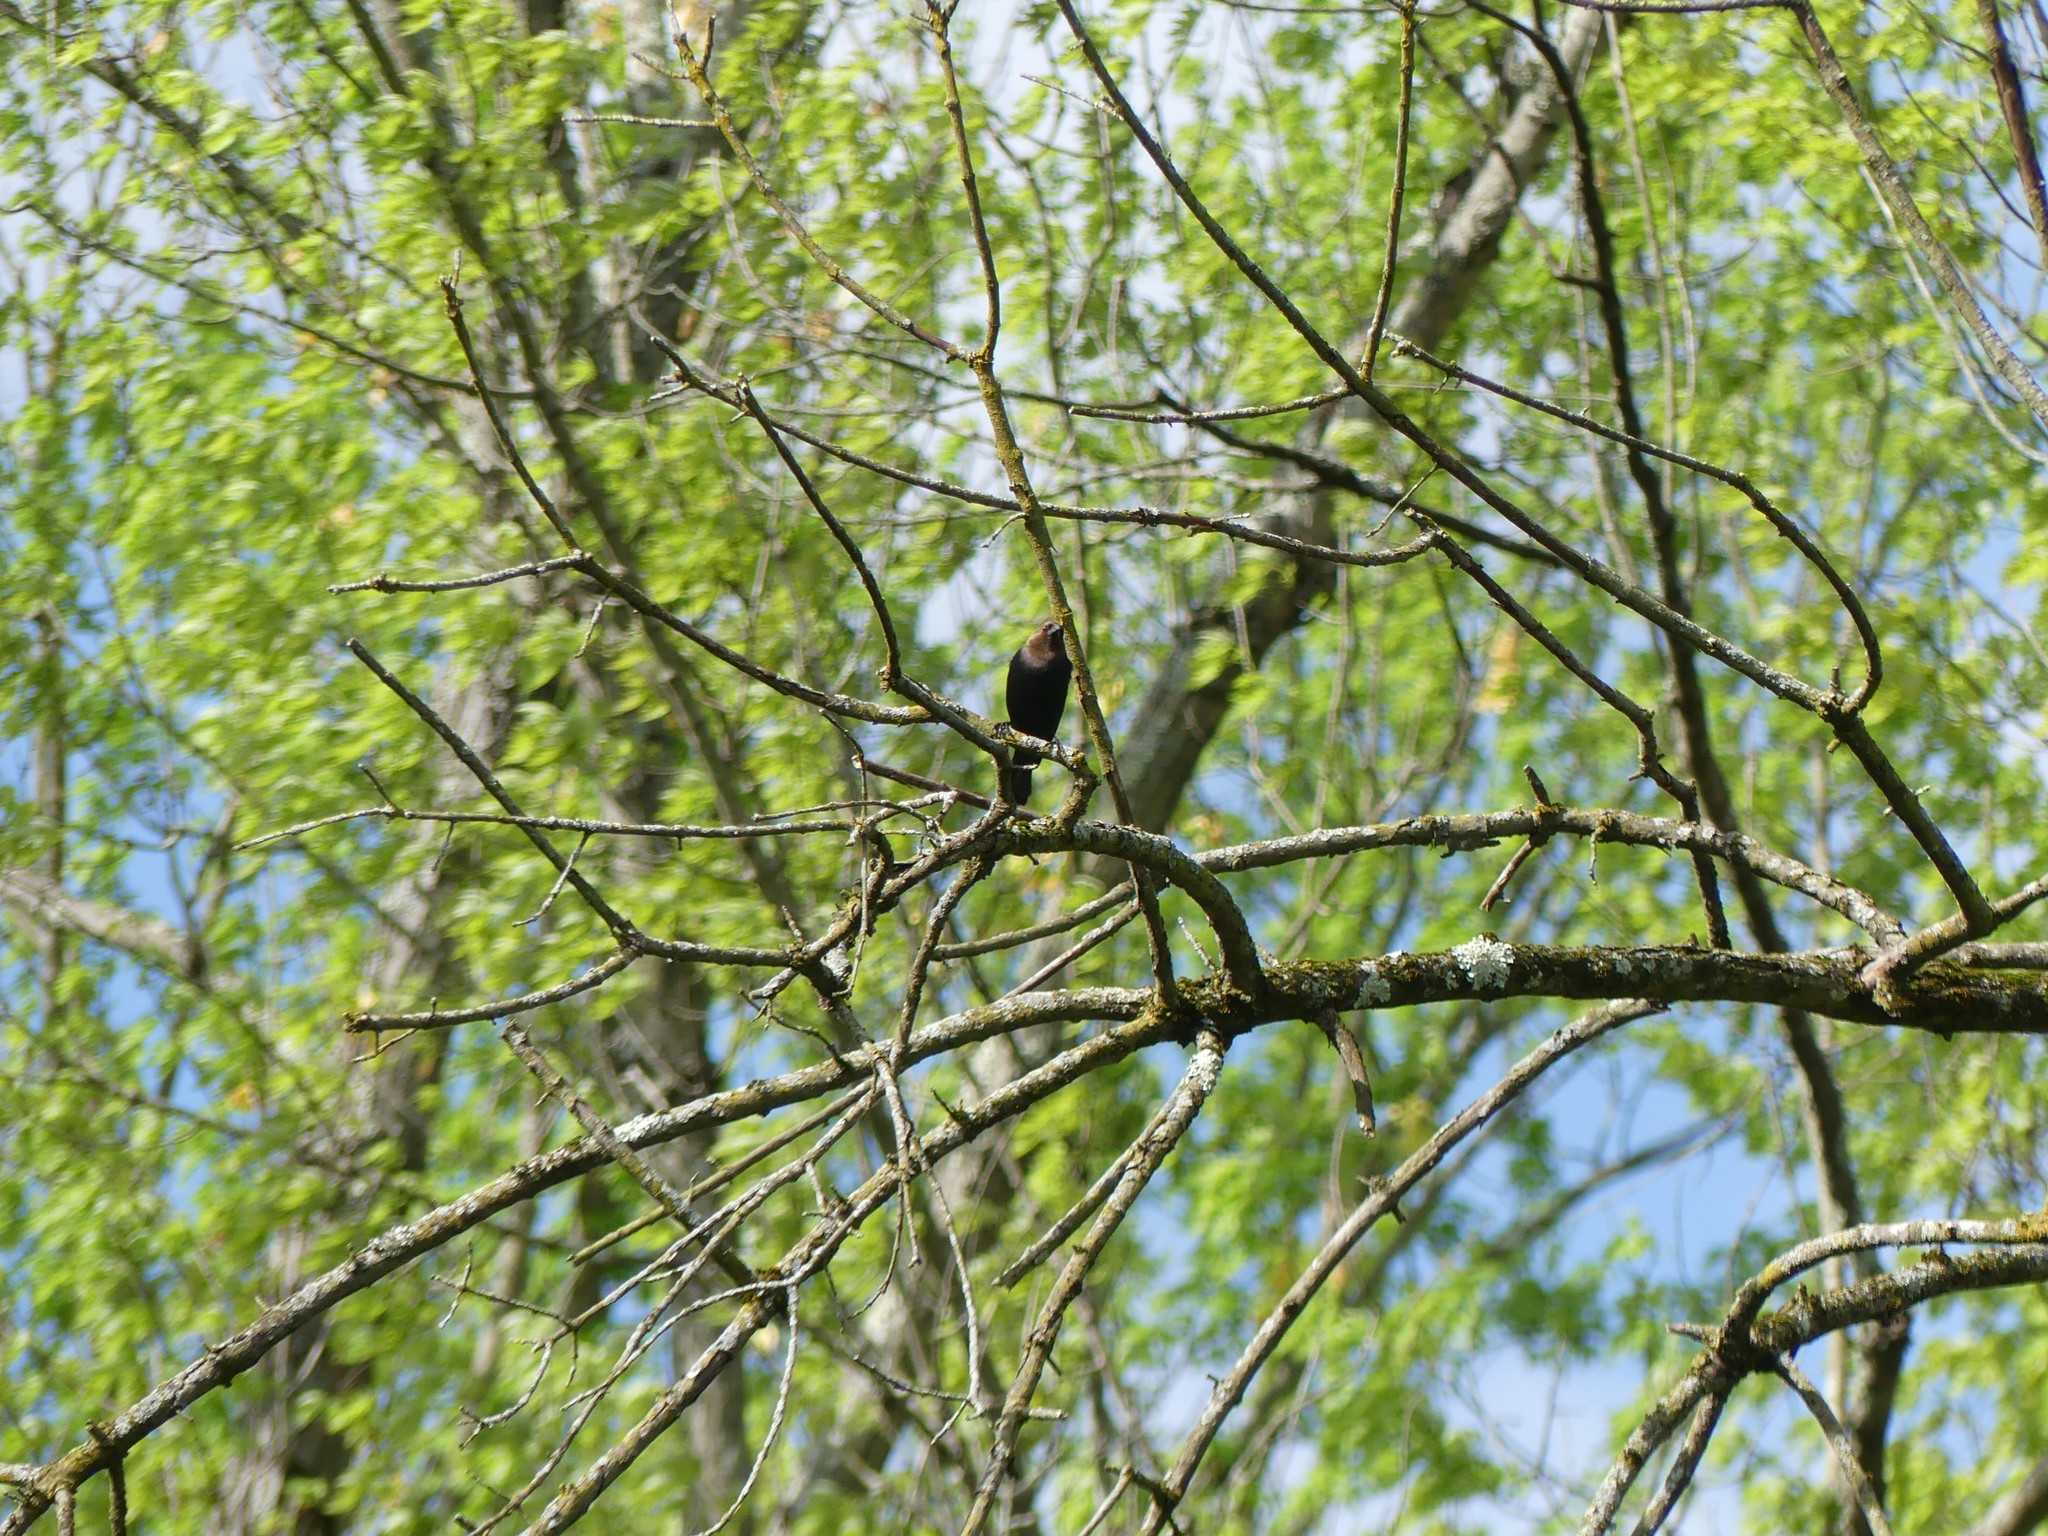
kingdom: Animalia
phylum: Chordata
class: Aves
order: Passeriformes
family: Icteridae
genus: Molothrus
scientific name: Molothrus ater
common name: Brown-headed cowbird
